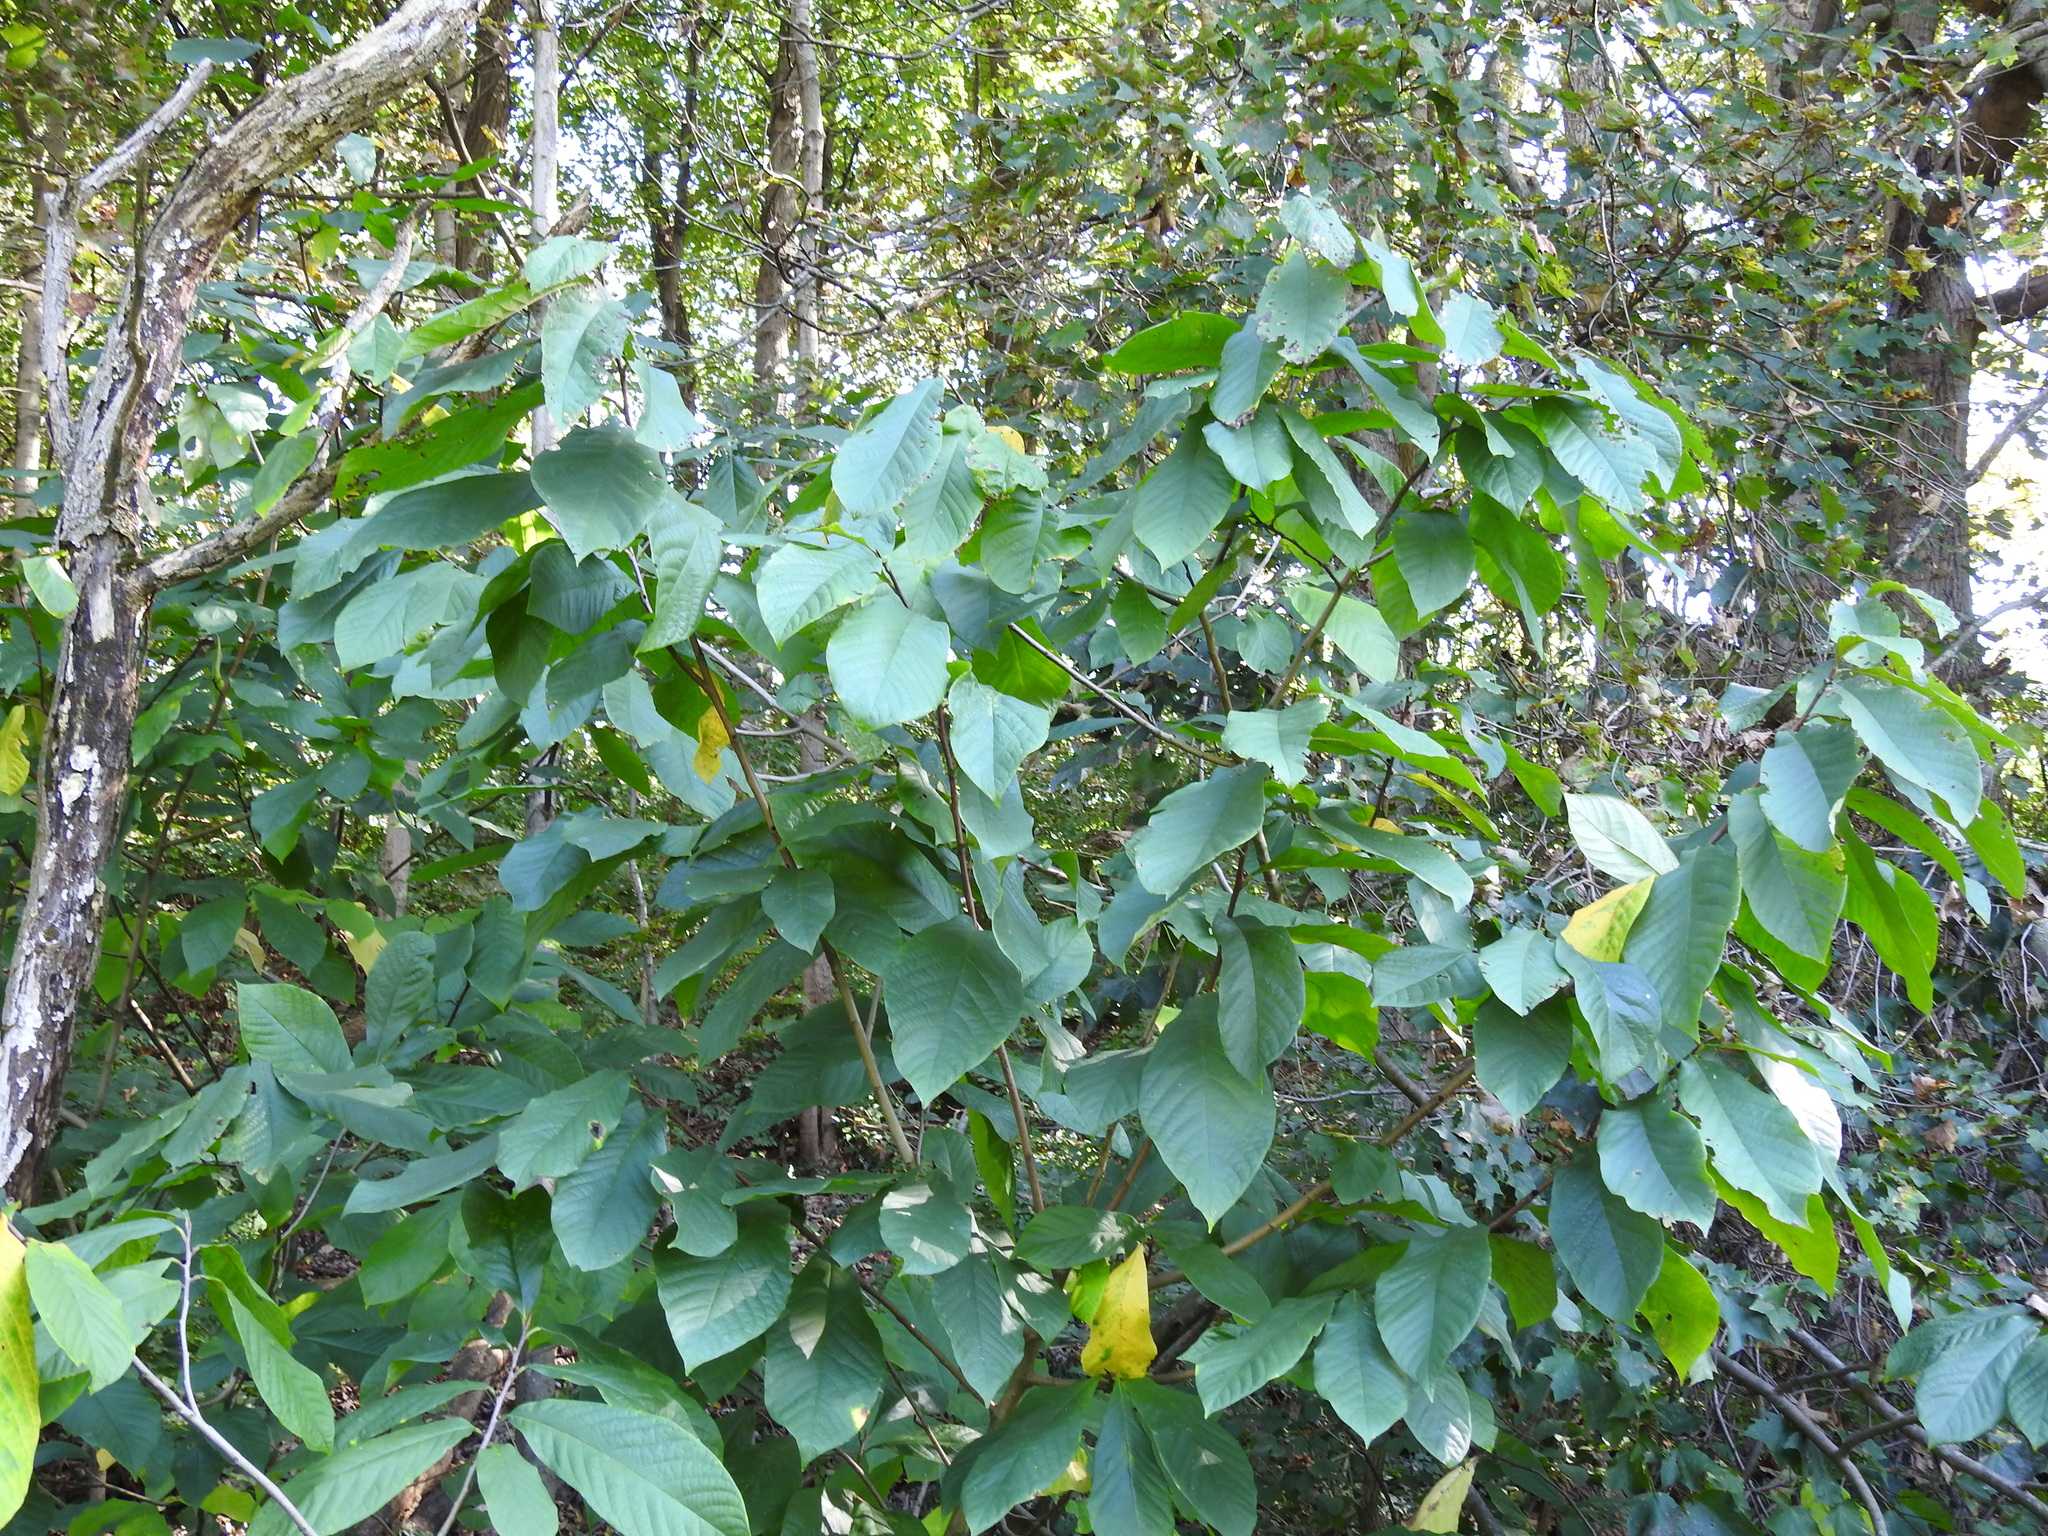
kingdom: Plantae
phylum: Tracheophyta
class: Magnoliopsida
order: Magnoliales
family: Annonaceae
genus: Asimina
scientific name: Asimina triloba
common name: Dog-banana
